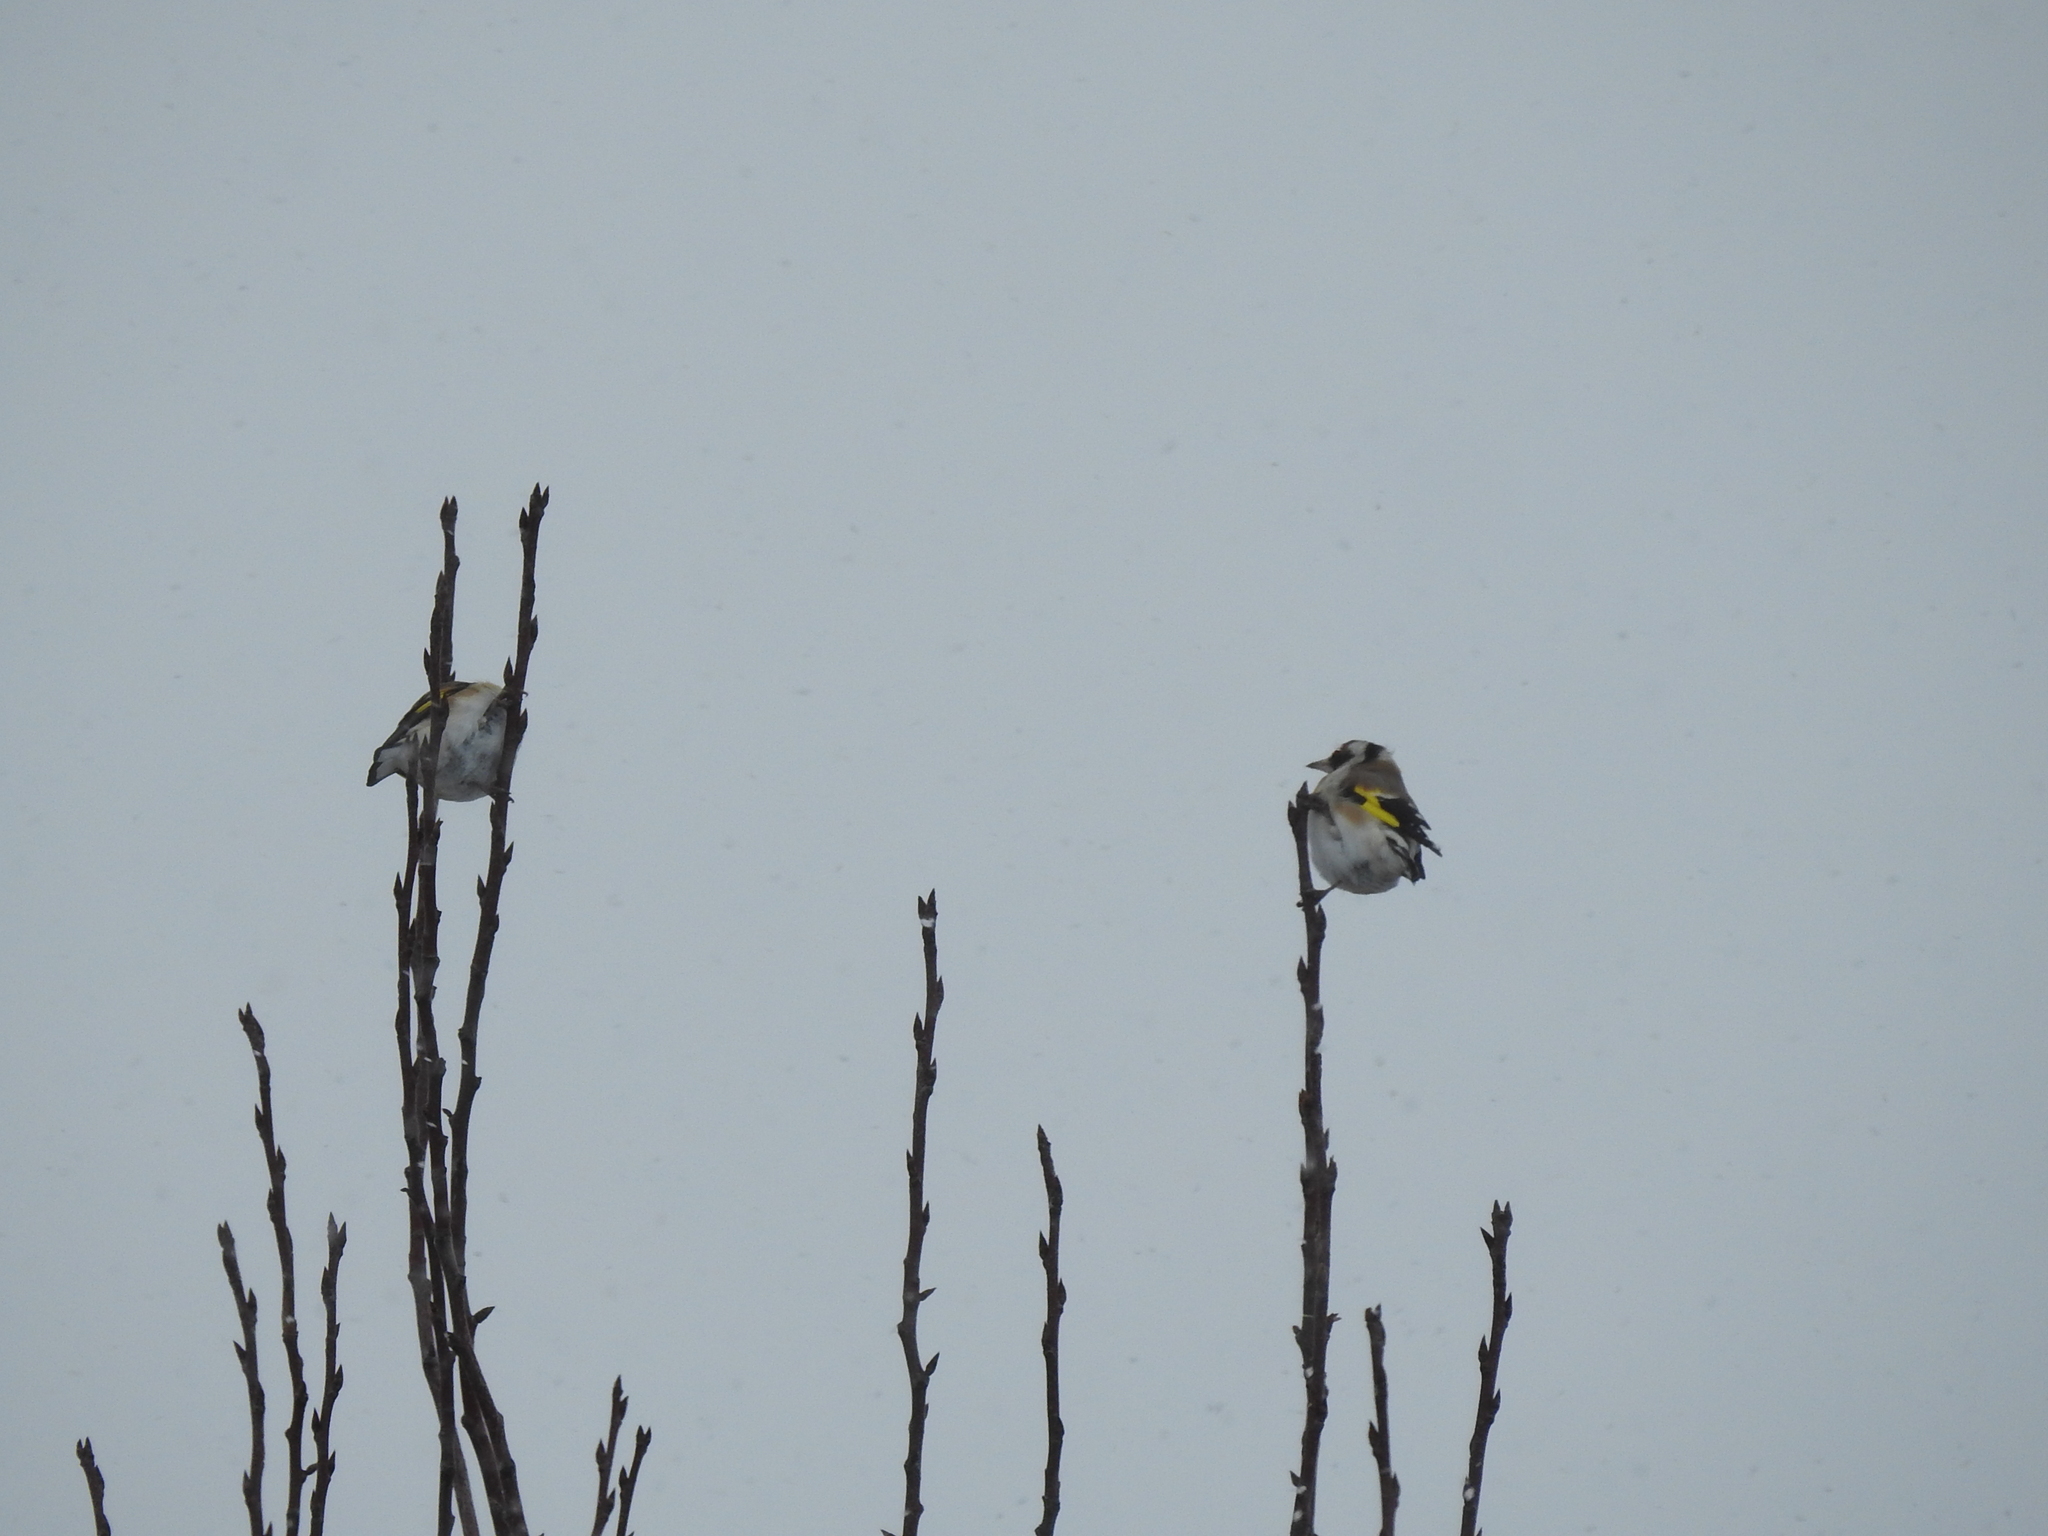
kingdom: Animalia
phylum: Chordata
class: Aves
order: Passeriformes
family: Fringillidae
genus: Carduelis
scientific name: Carduelis carduelis
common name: European goldfinch
